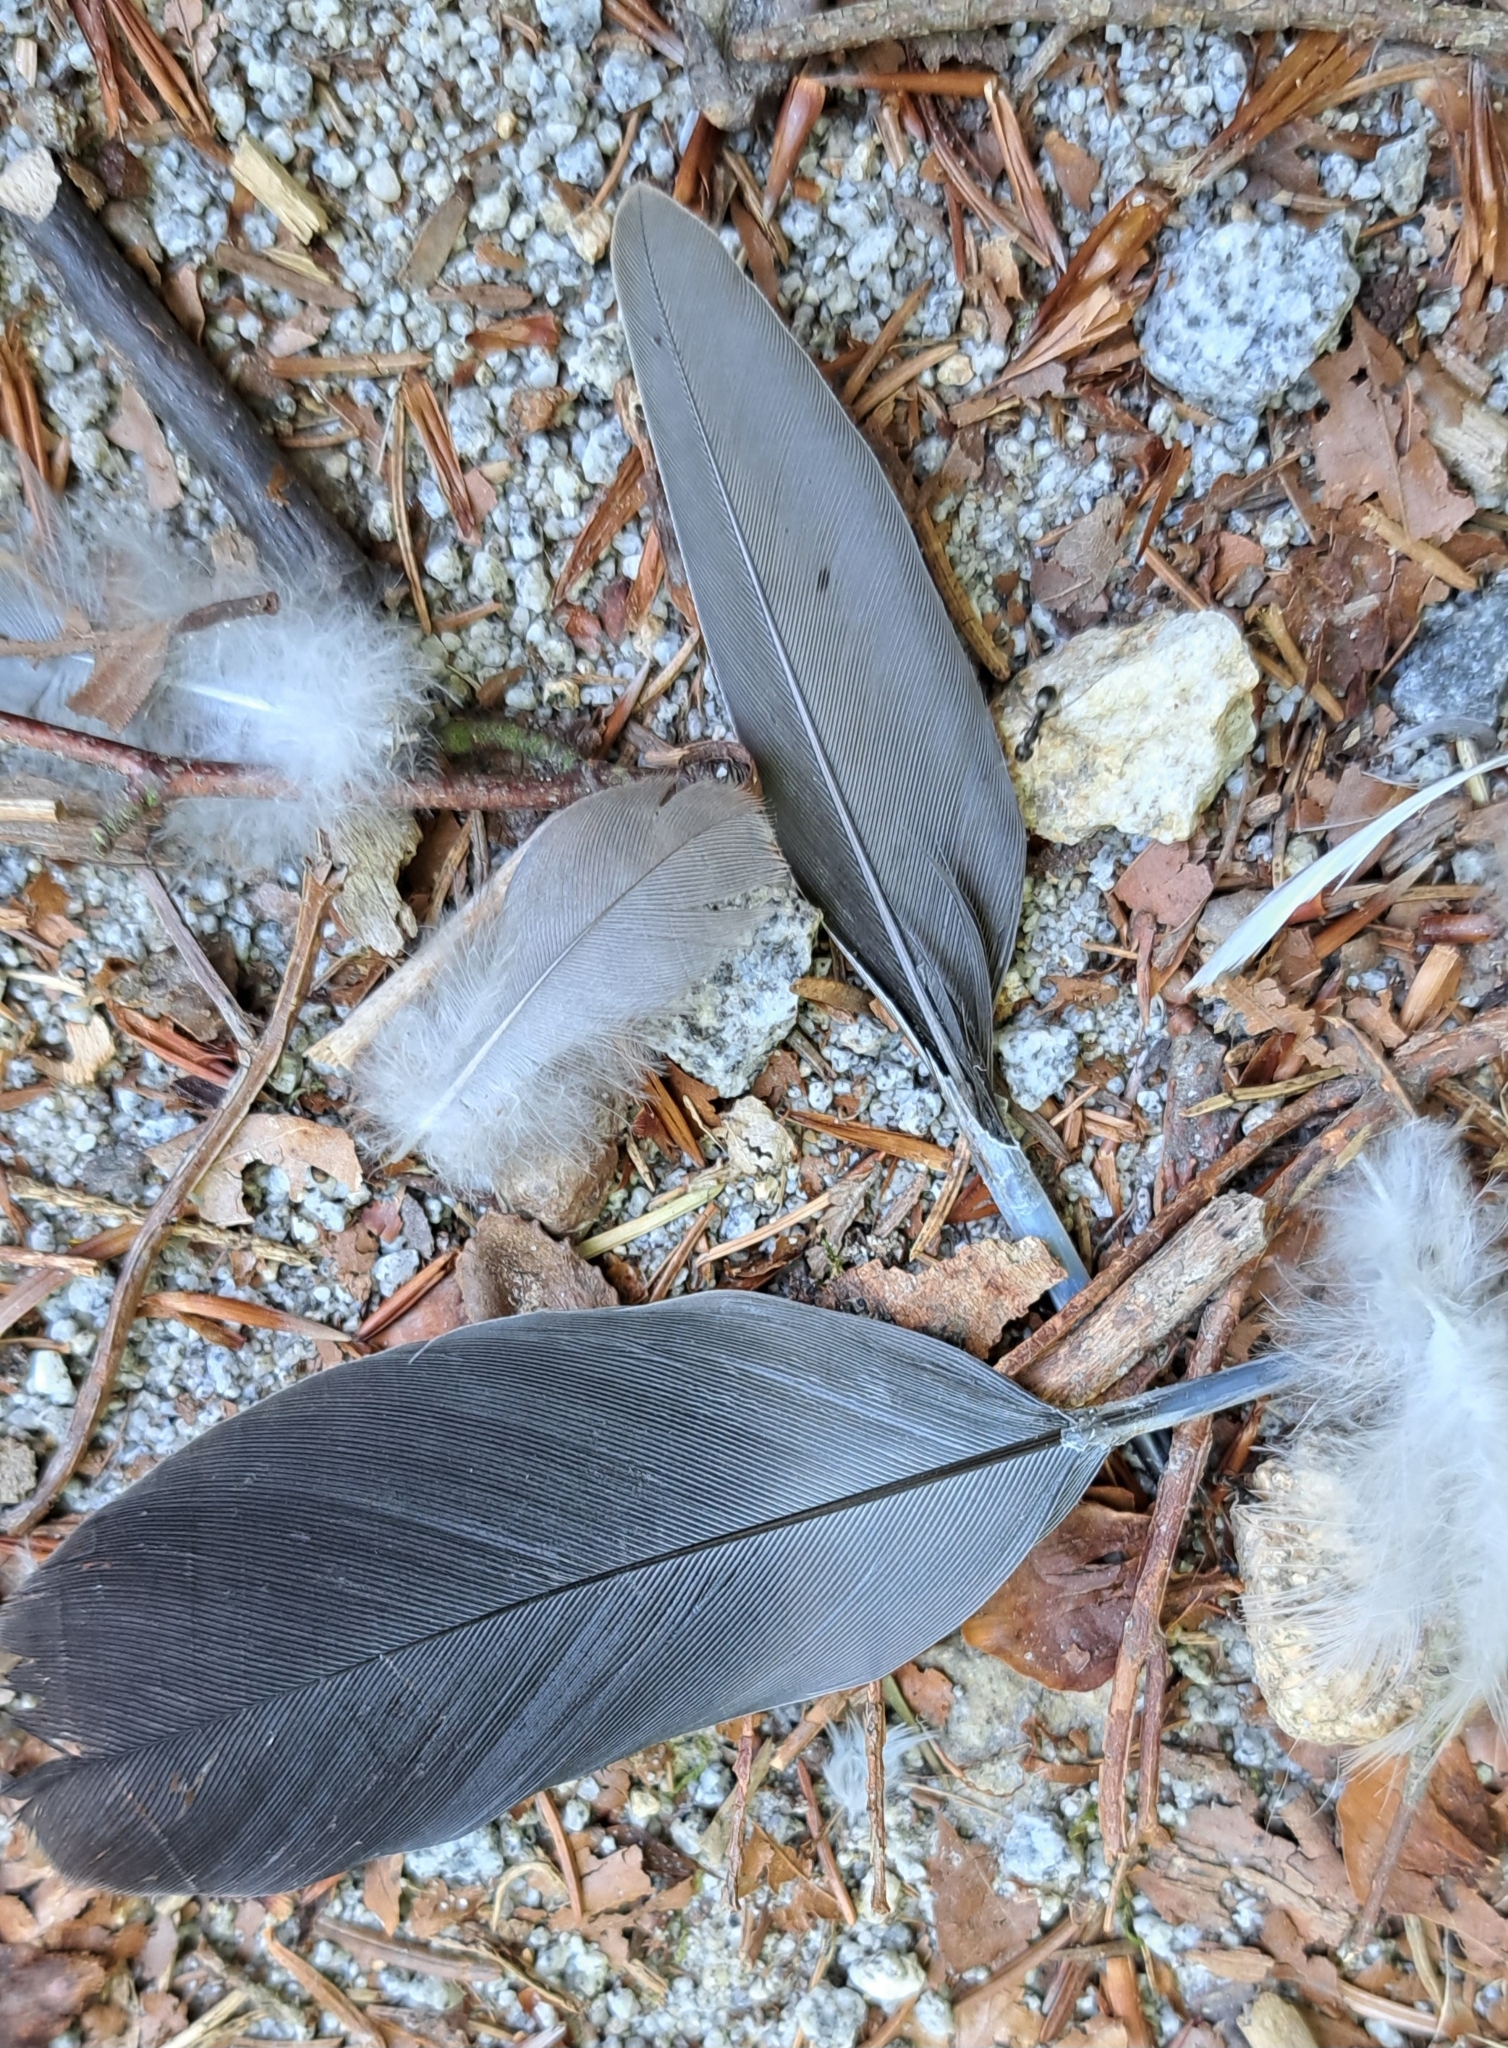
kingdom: Animalia
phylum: Chordata
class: Aves
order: Columbiformes
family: Columbidae
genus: Columba
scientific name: Columba palumbus
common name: Common wood pigeon
